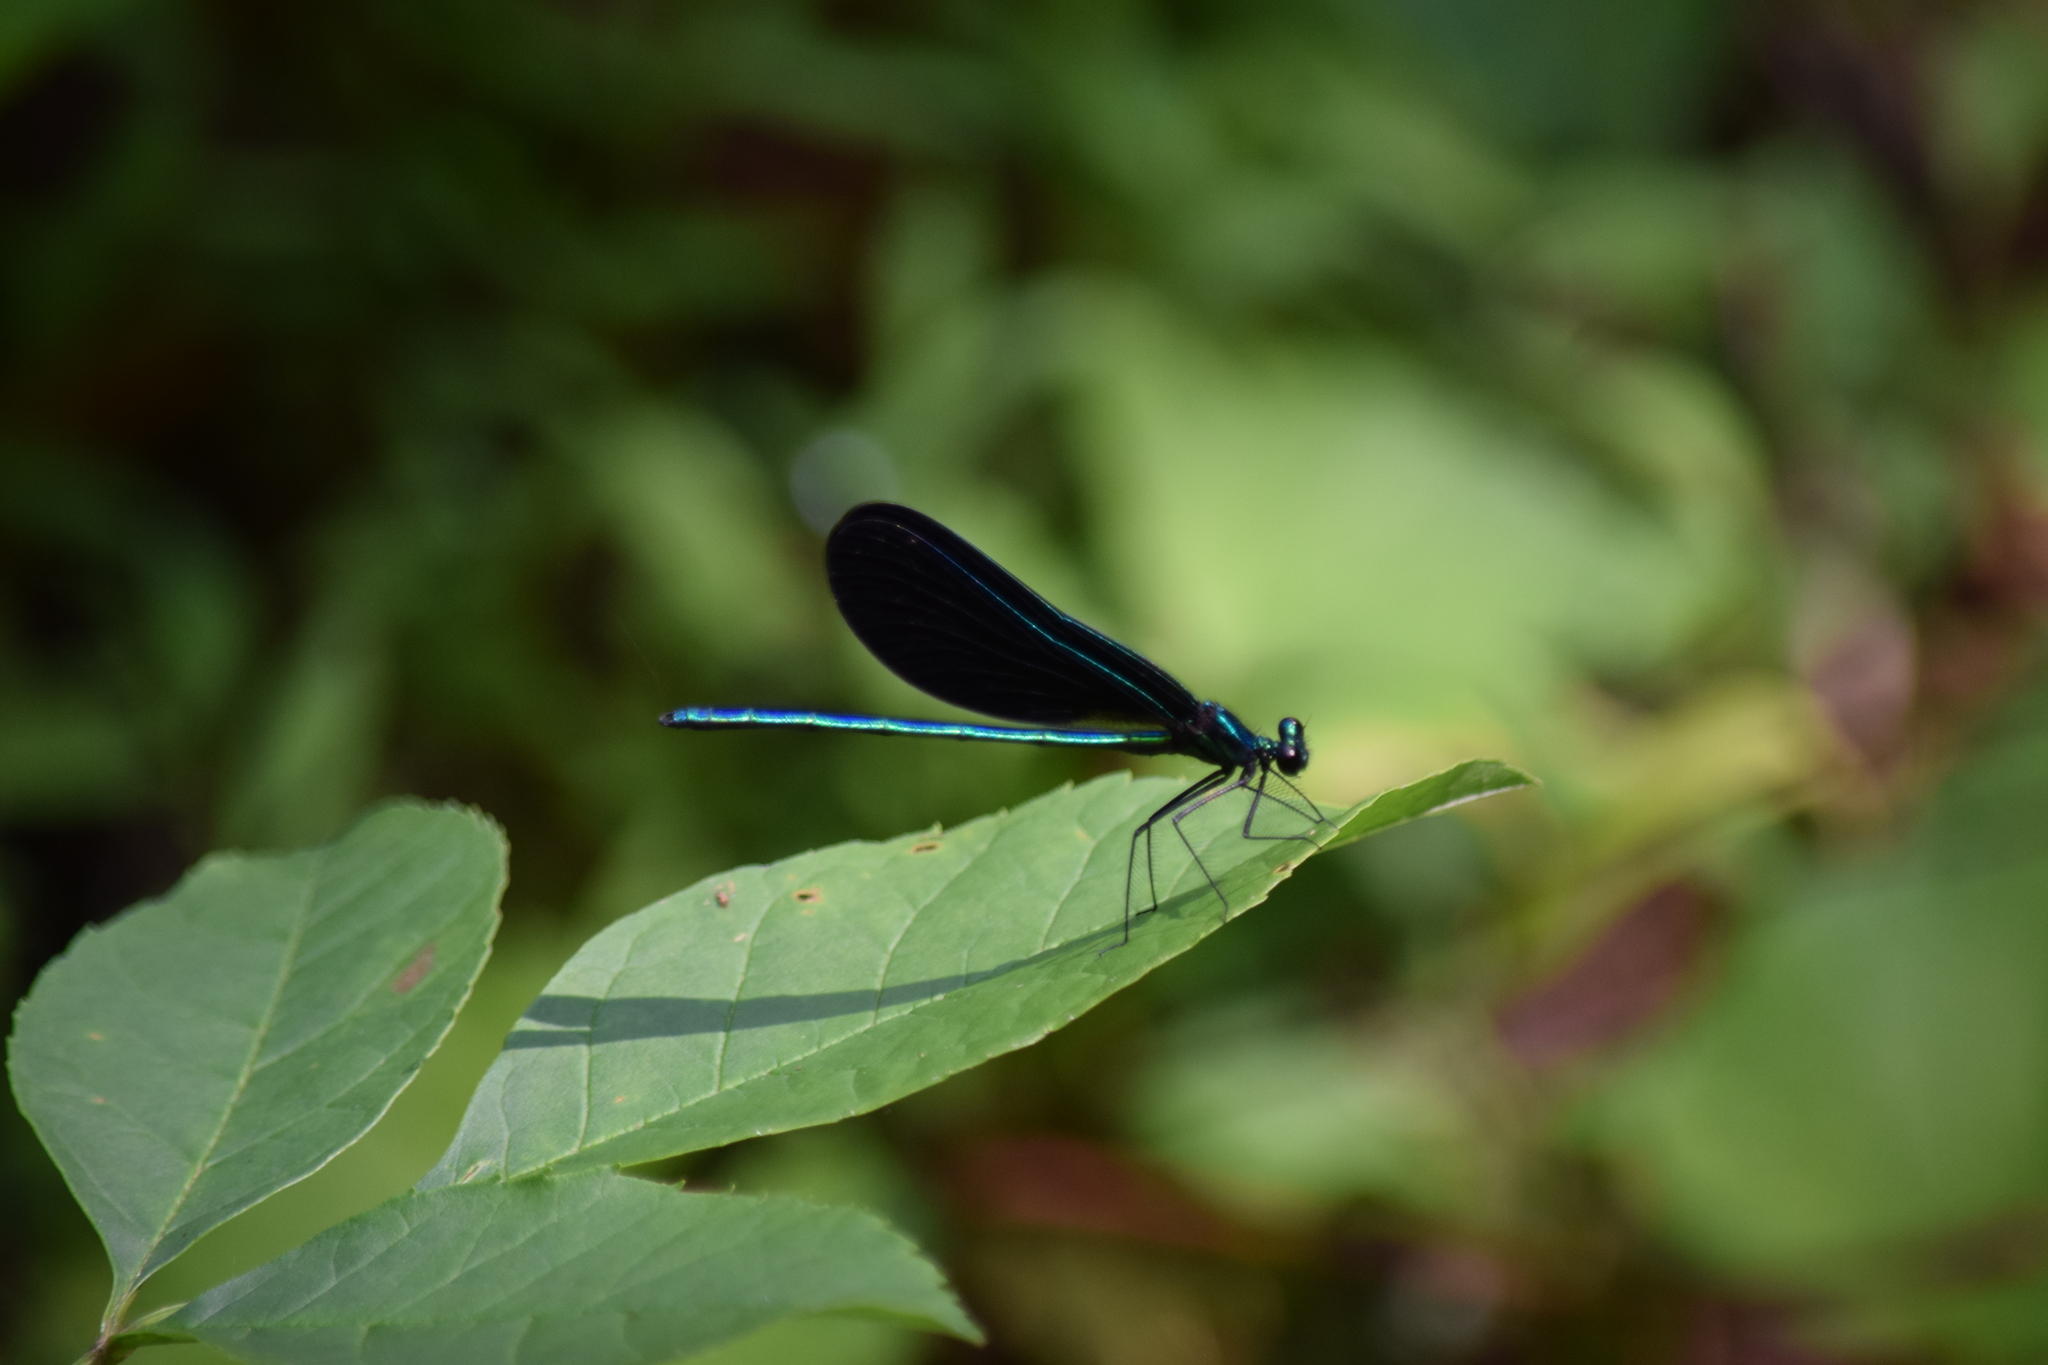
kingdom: Animalia
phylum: Arthropoda
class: Insecta
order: Odonata
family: Calopterygidae
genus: Calopteryx
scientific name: Calopteryx maculata
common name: Ebony jewelwing
